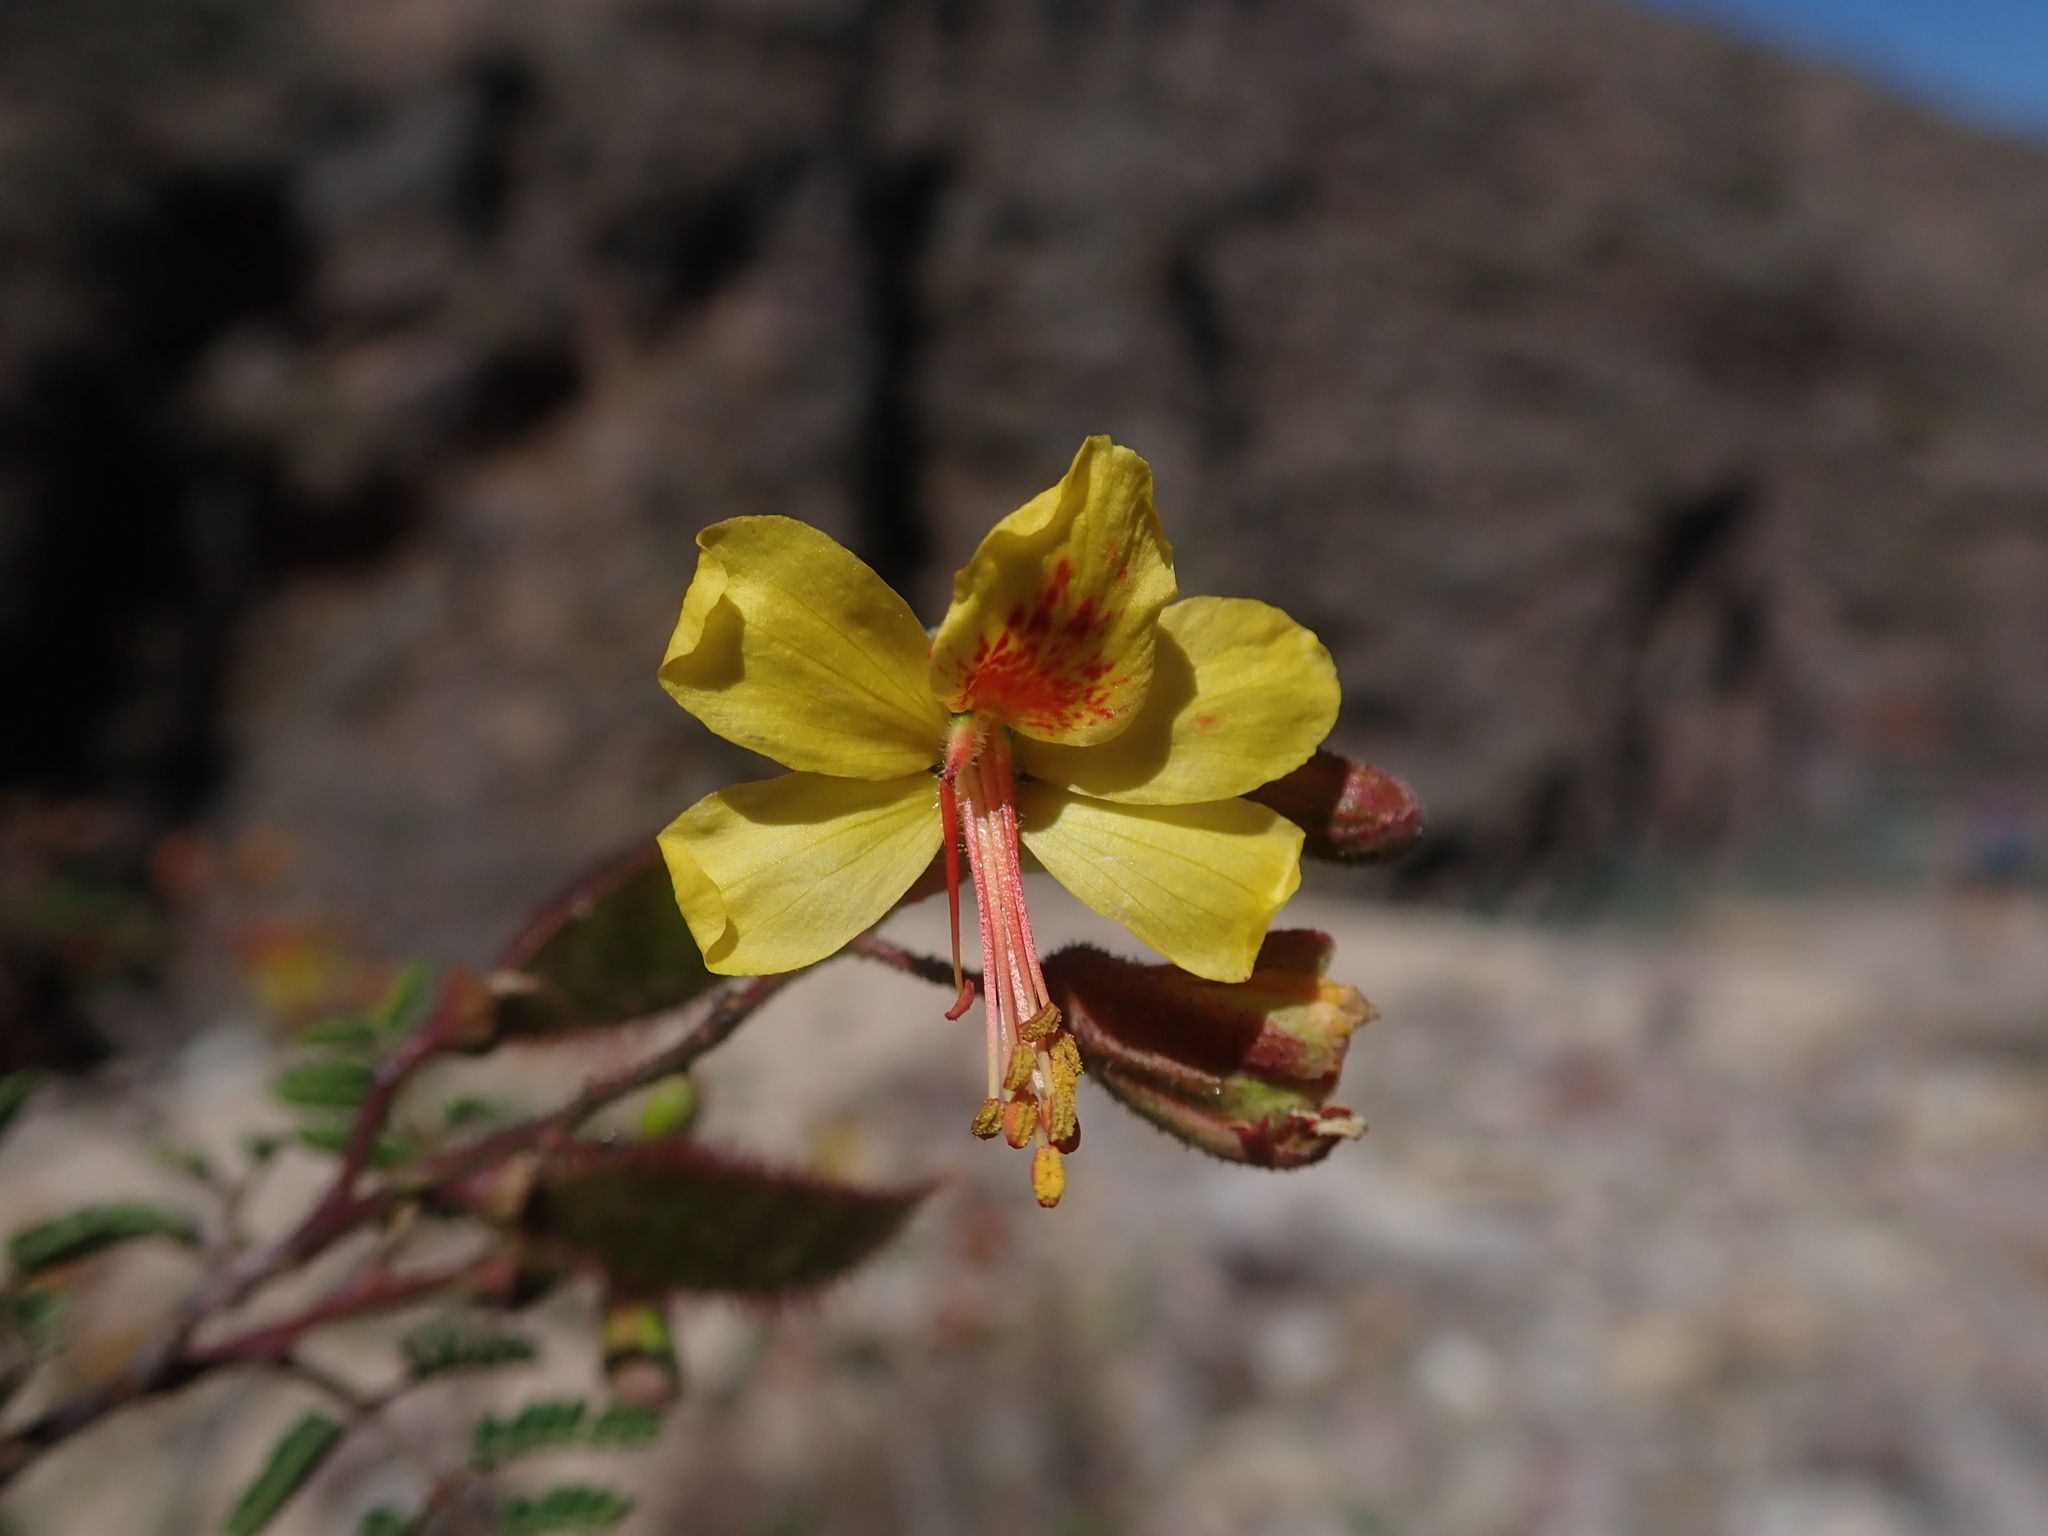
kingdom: Plantae
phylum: Tracheophyta
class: Magnoliopsida
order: Fabales
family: Fabaceae
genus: Arquita
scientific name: Arquita mimosifolia
